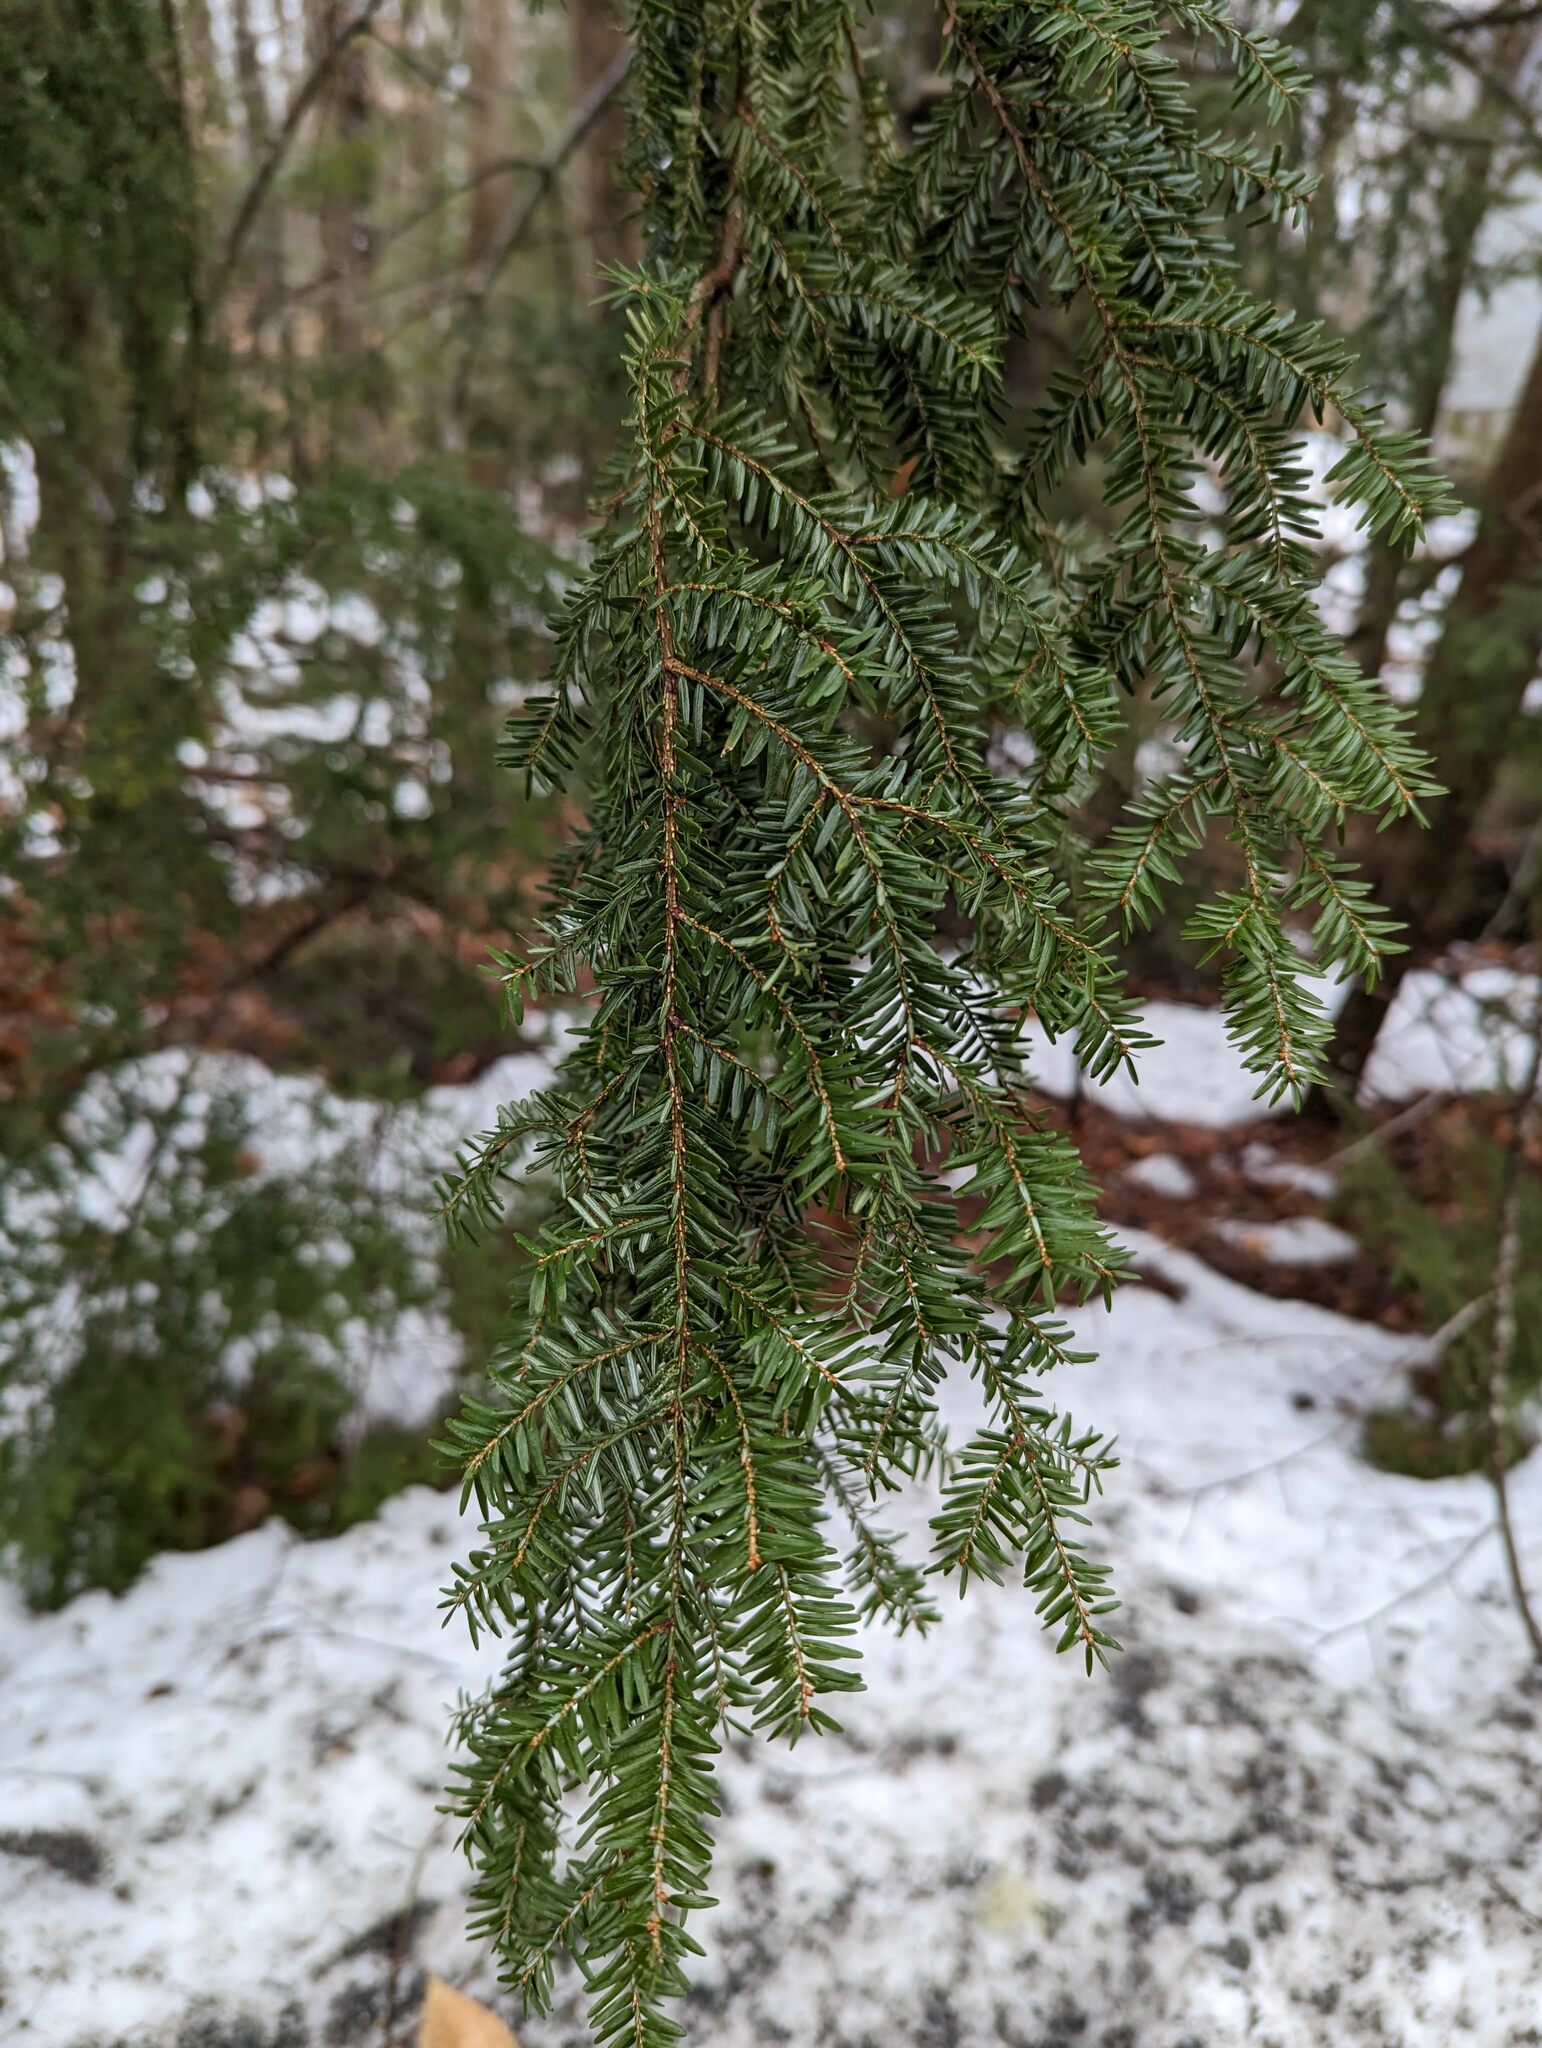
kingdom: Plantae
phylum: Tracheophyta
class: Pinopsida
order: Pinales
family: Pinaceae
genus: Tsuga
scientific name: Tsuga canadensis
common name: Eastern hemlock
